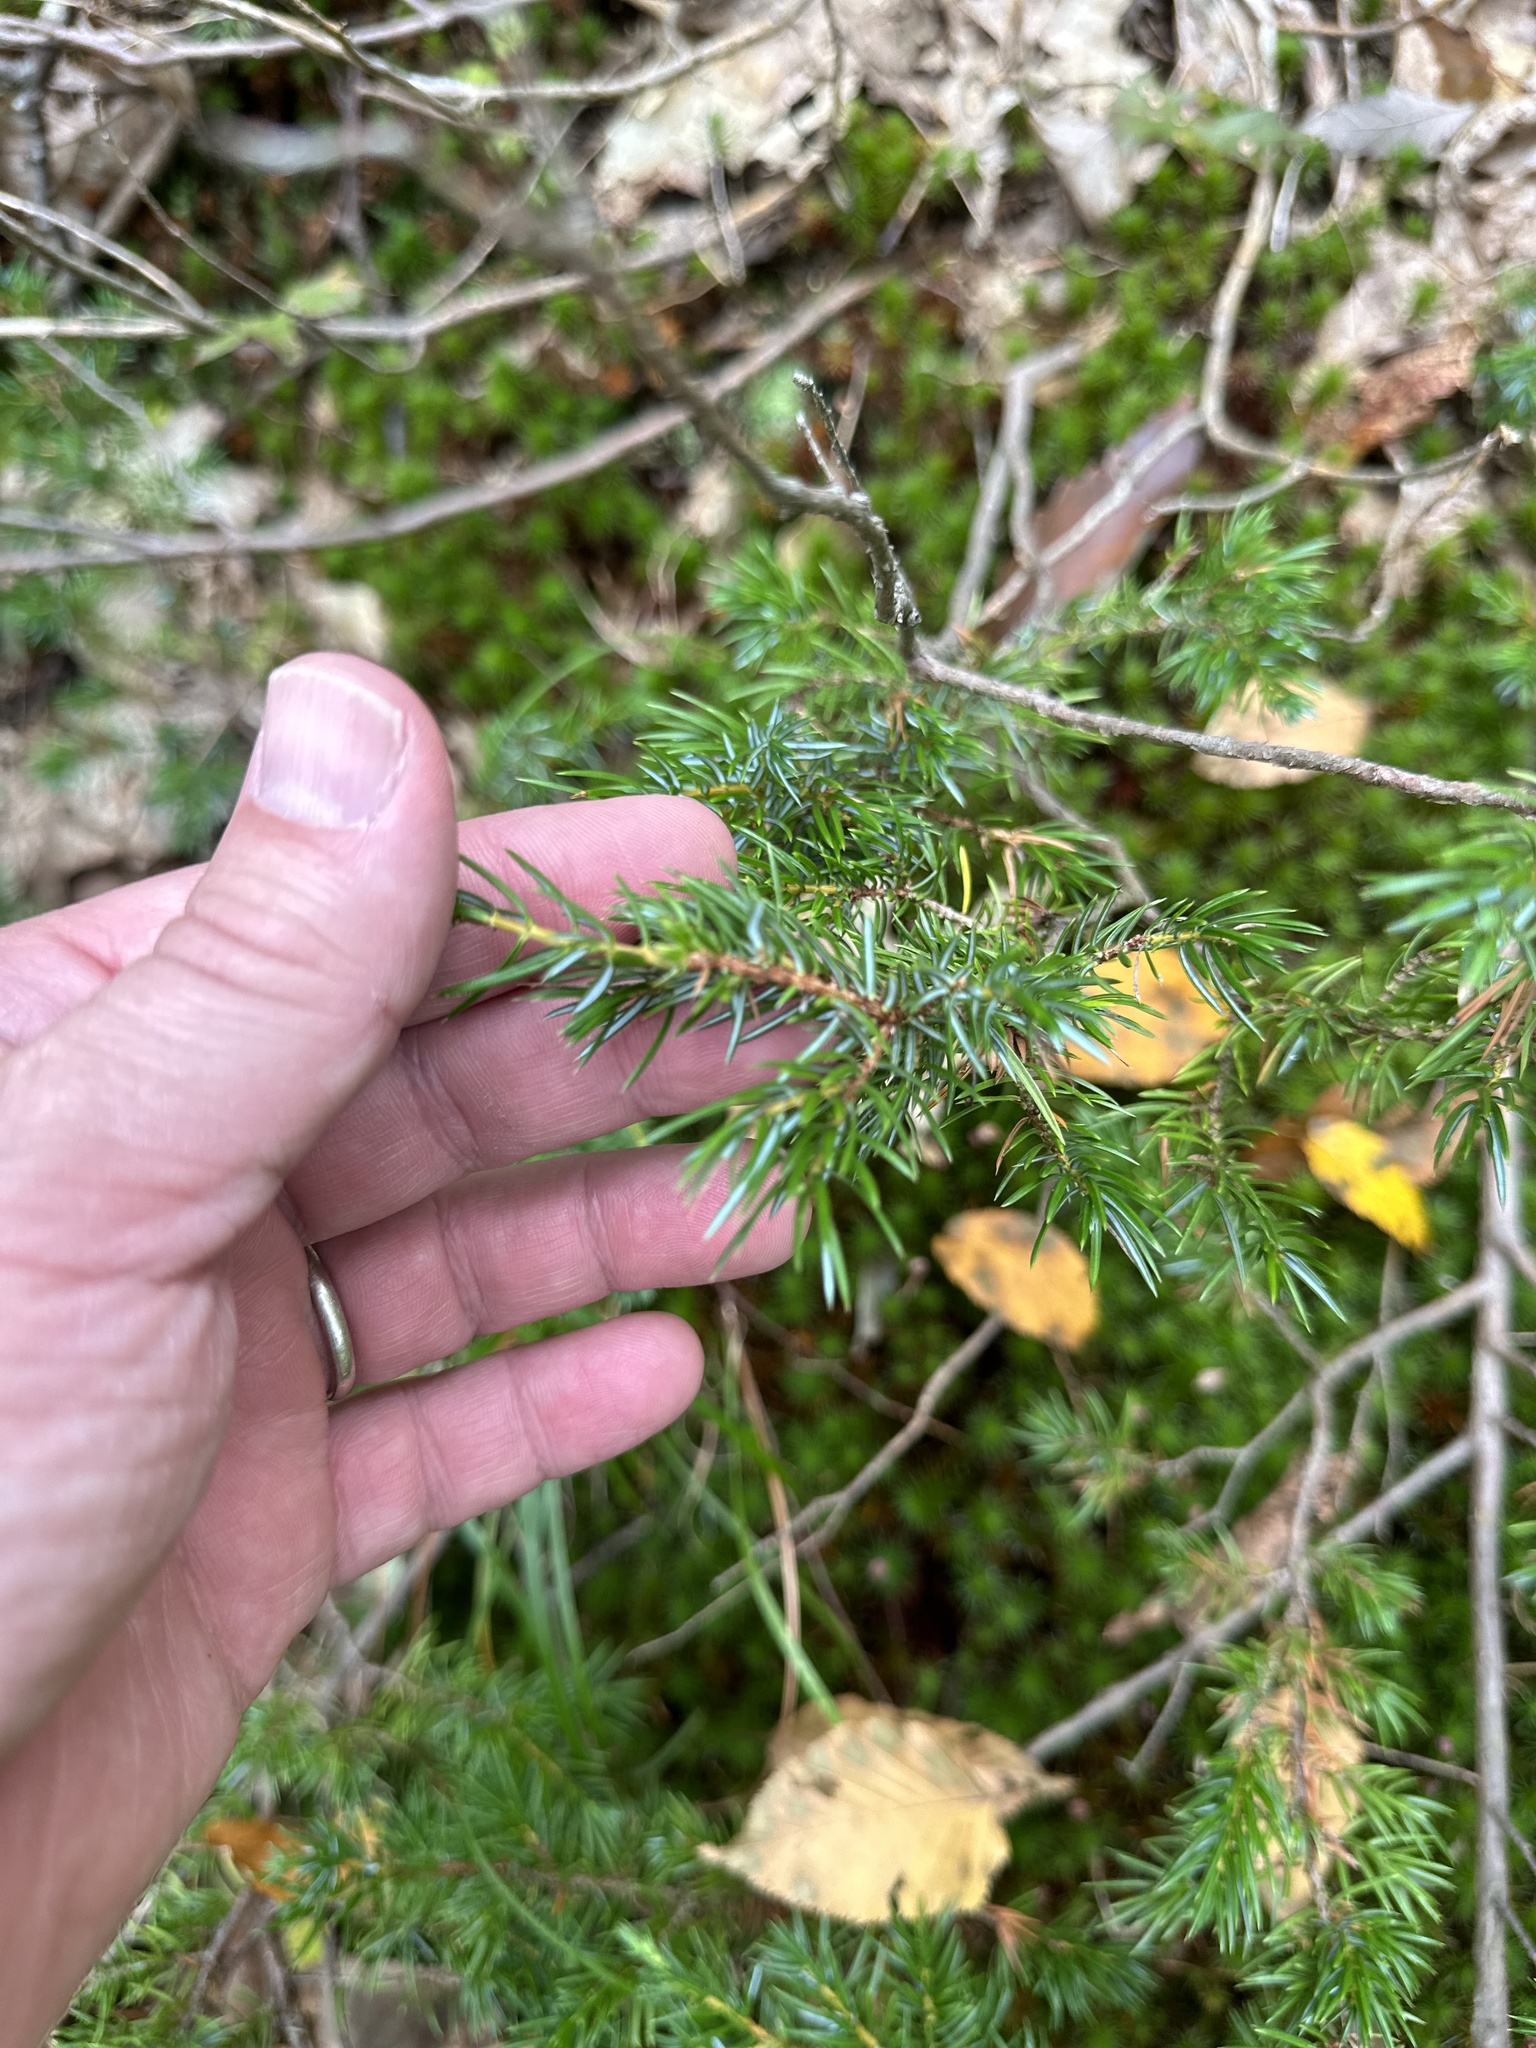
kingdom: Plantae
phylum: Tracheophyta
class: Pinopsida
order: Pinales
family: Cupressaceae
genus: Juniperus
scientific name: Juniperus communis
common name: Common juniper
